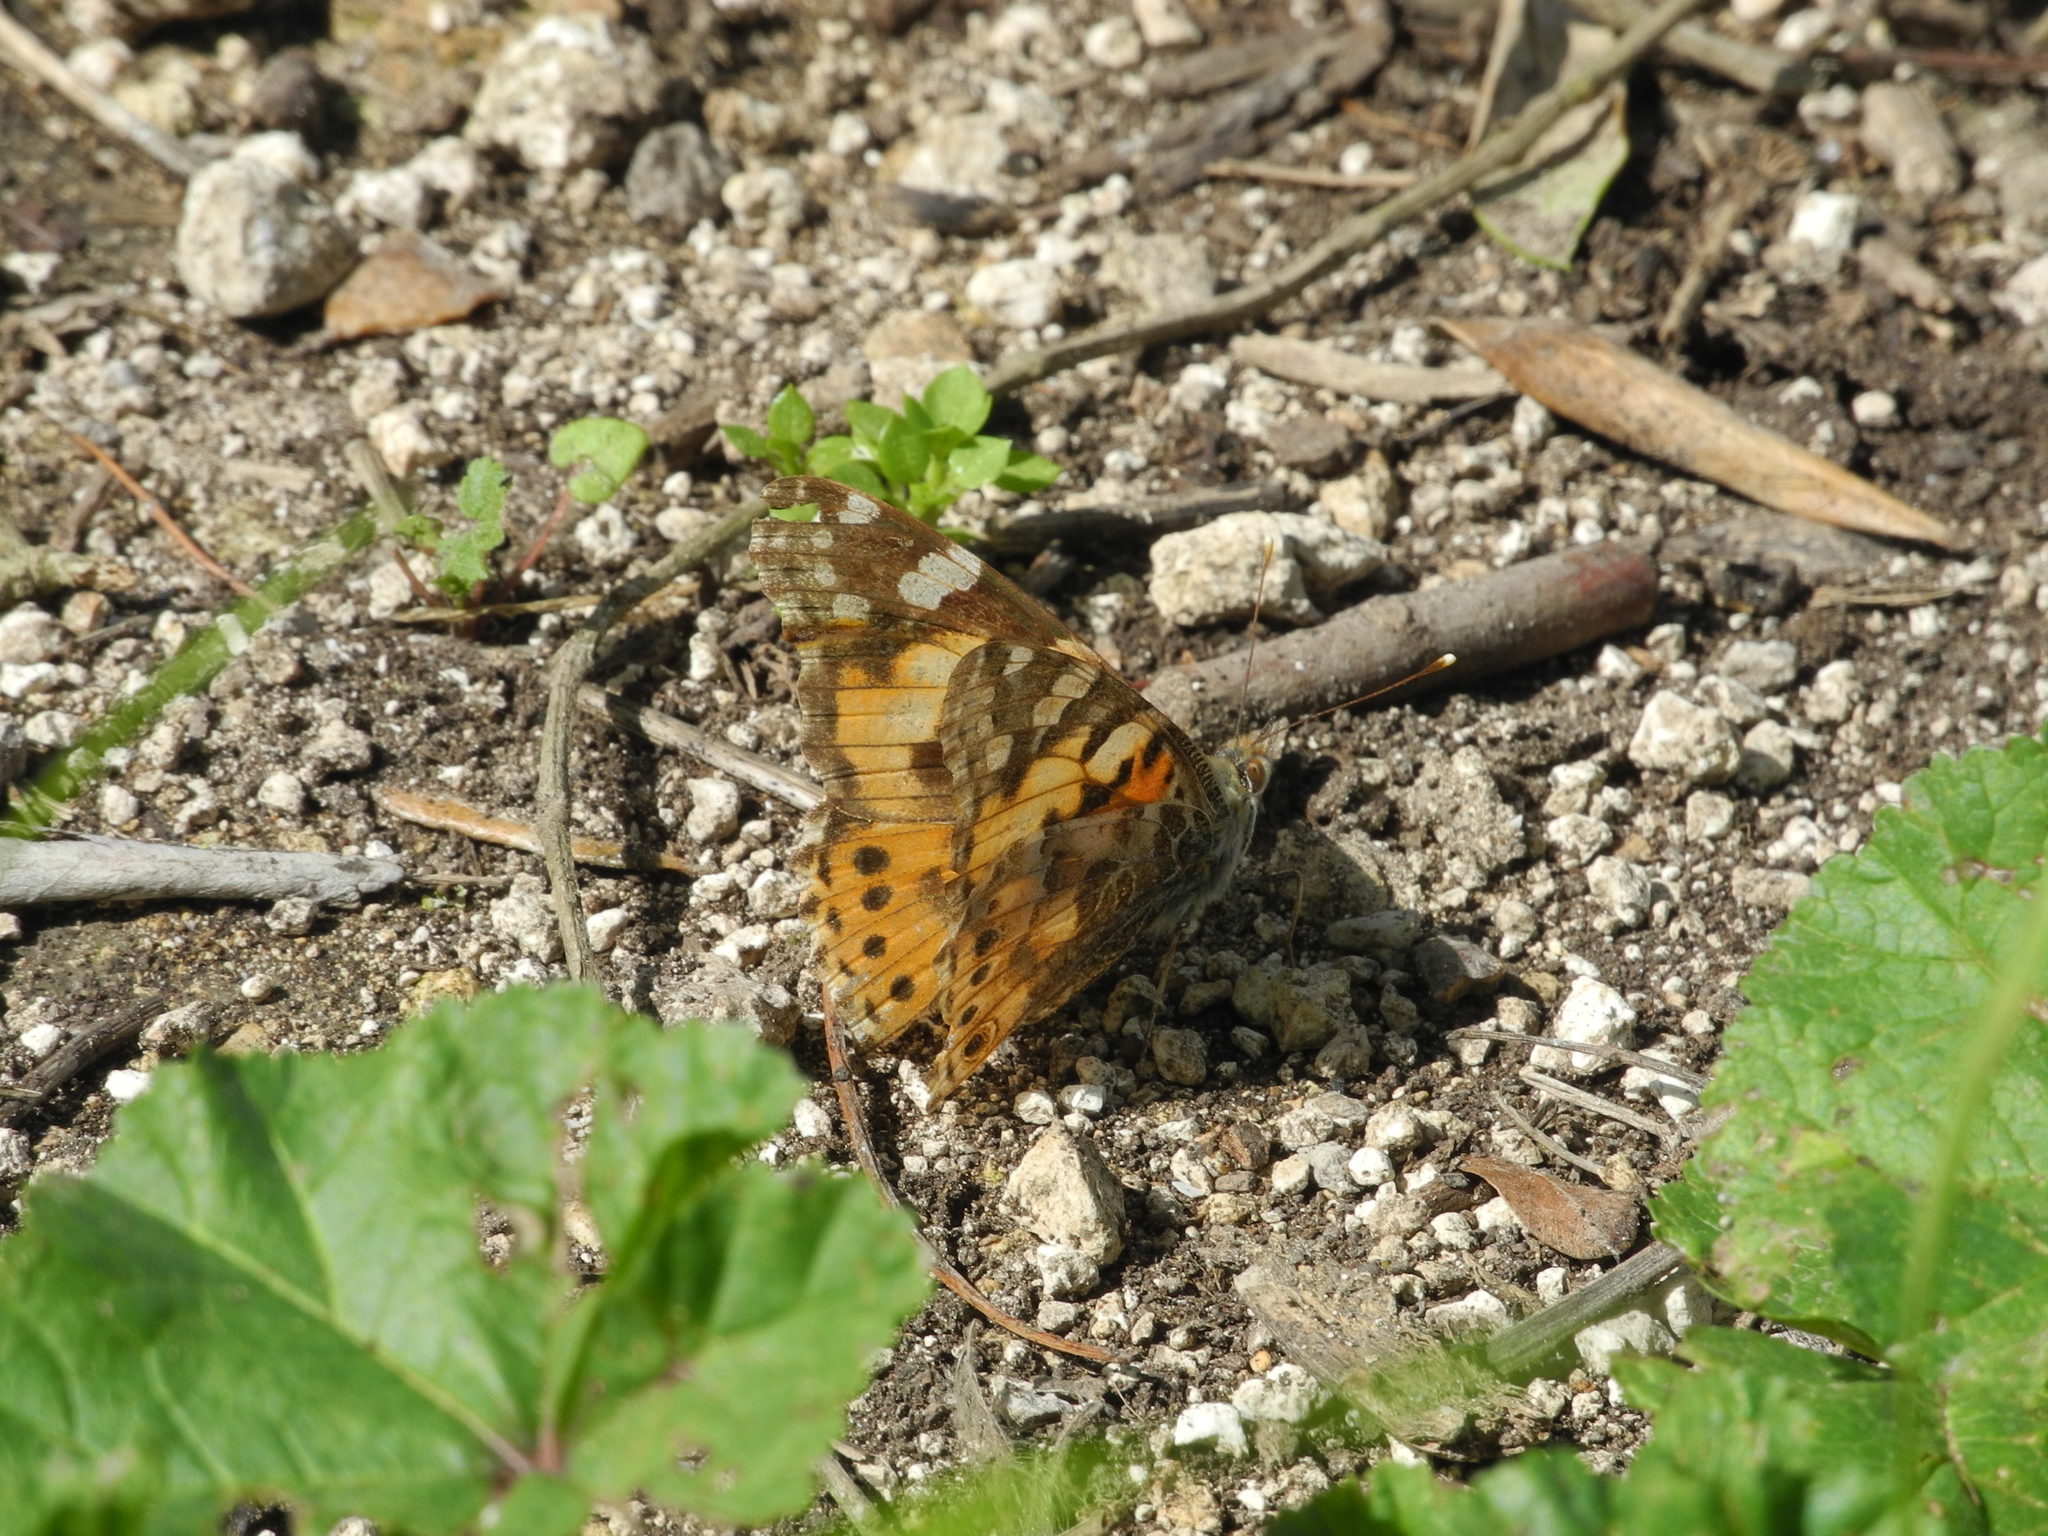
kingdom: Animalia
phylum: Arthropoda
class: Insecta
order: Lepidoptera
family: Nymphalidae
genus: Vanessa
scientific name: Vanessa cardui
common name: Painted lady
